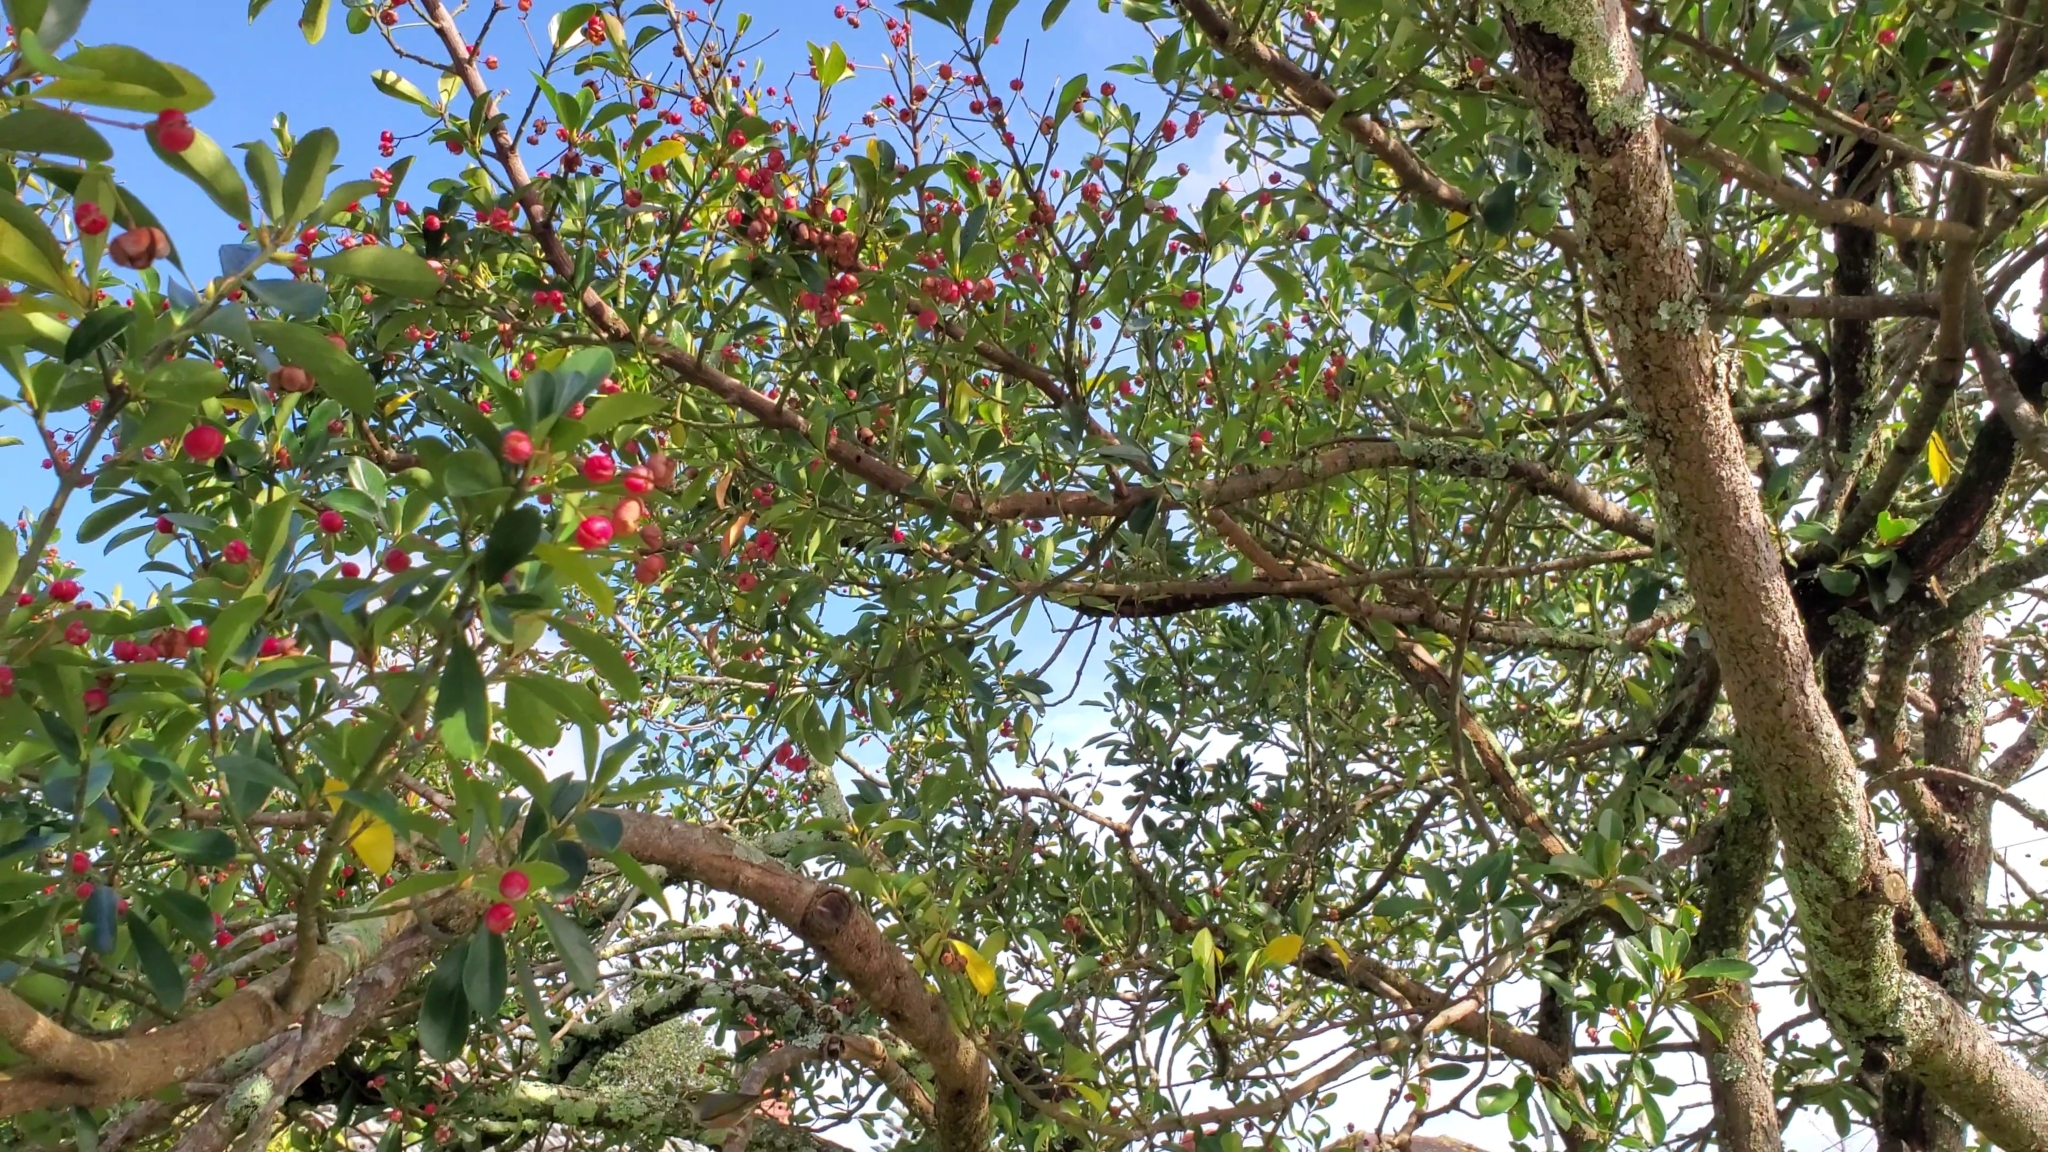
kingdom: Plantae
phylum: Tracheophyta
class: Magnoliopsida
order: Celastrales
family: Celastraceae
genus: Euonymus
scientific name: Euonymus japonicus
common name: Japanese spindletree
